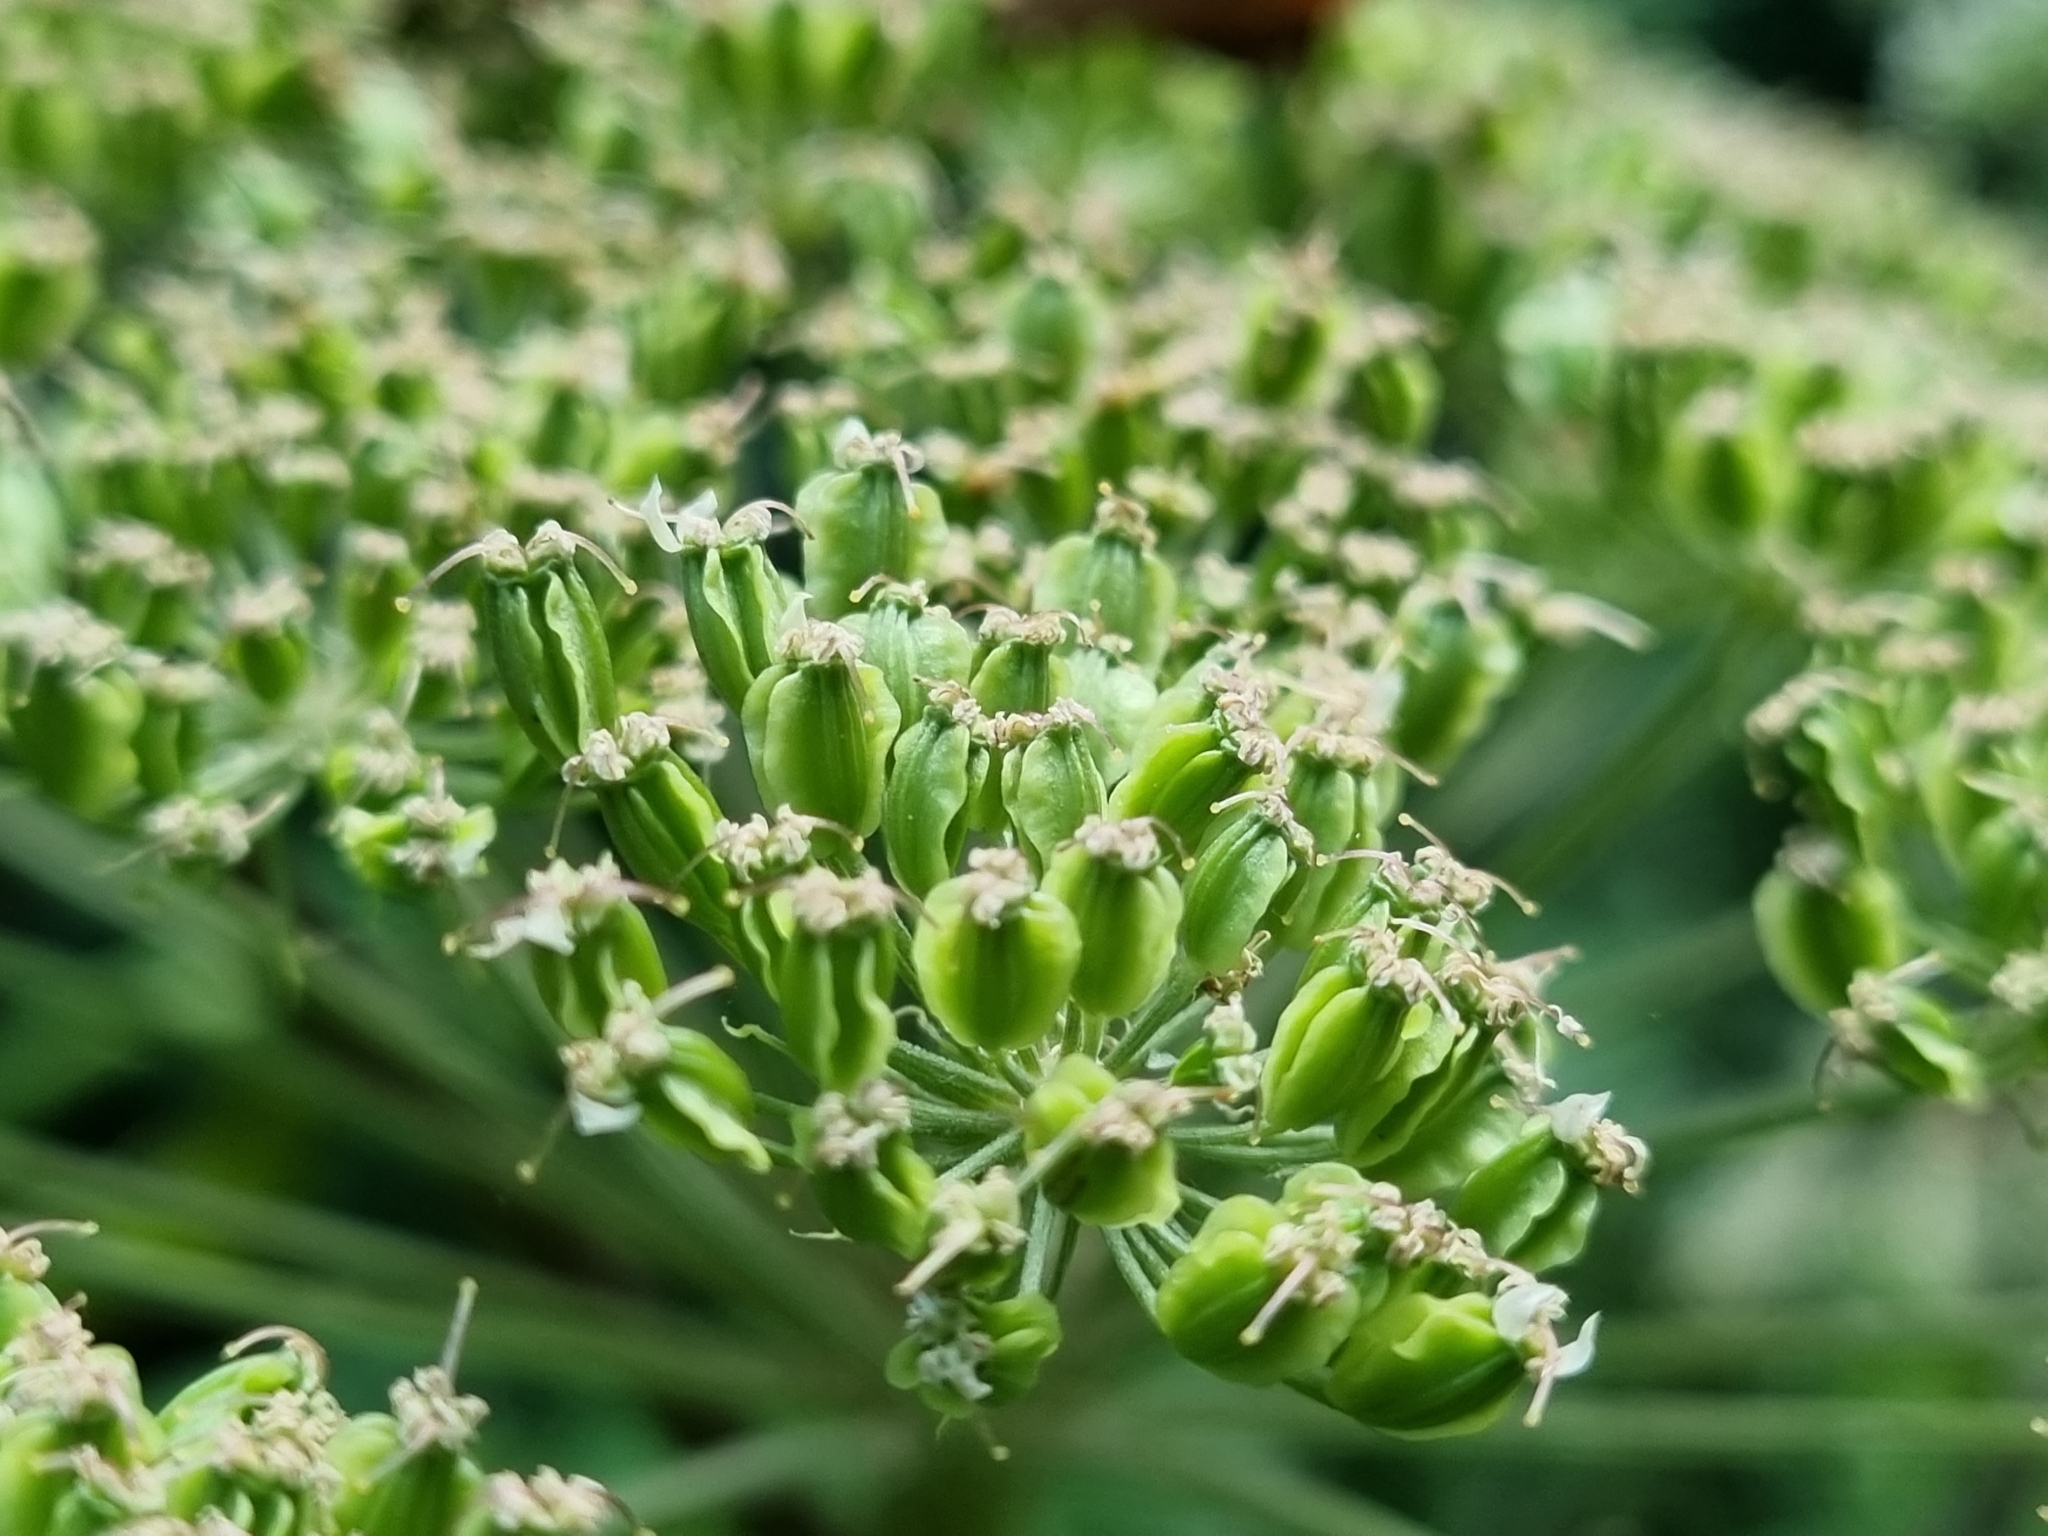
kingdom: Plantae
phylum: Tracheophyta
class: Magnoliopsida
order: Apiales
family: Apiaceae
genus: Angelica
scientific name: Angelica sylvestris
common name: Wild angelica
